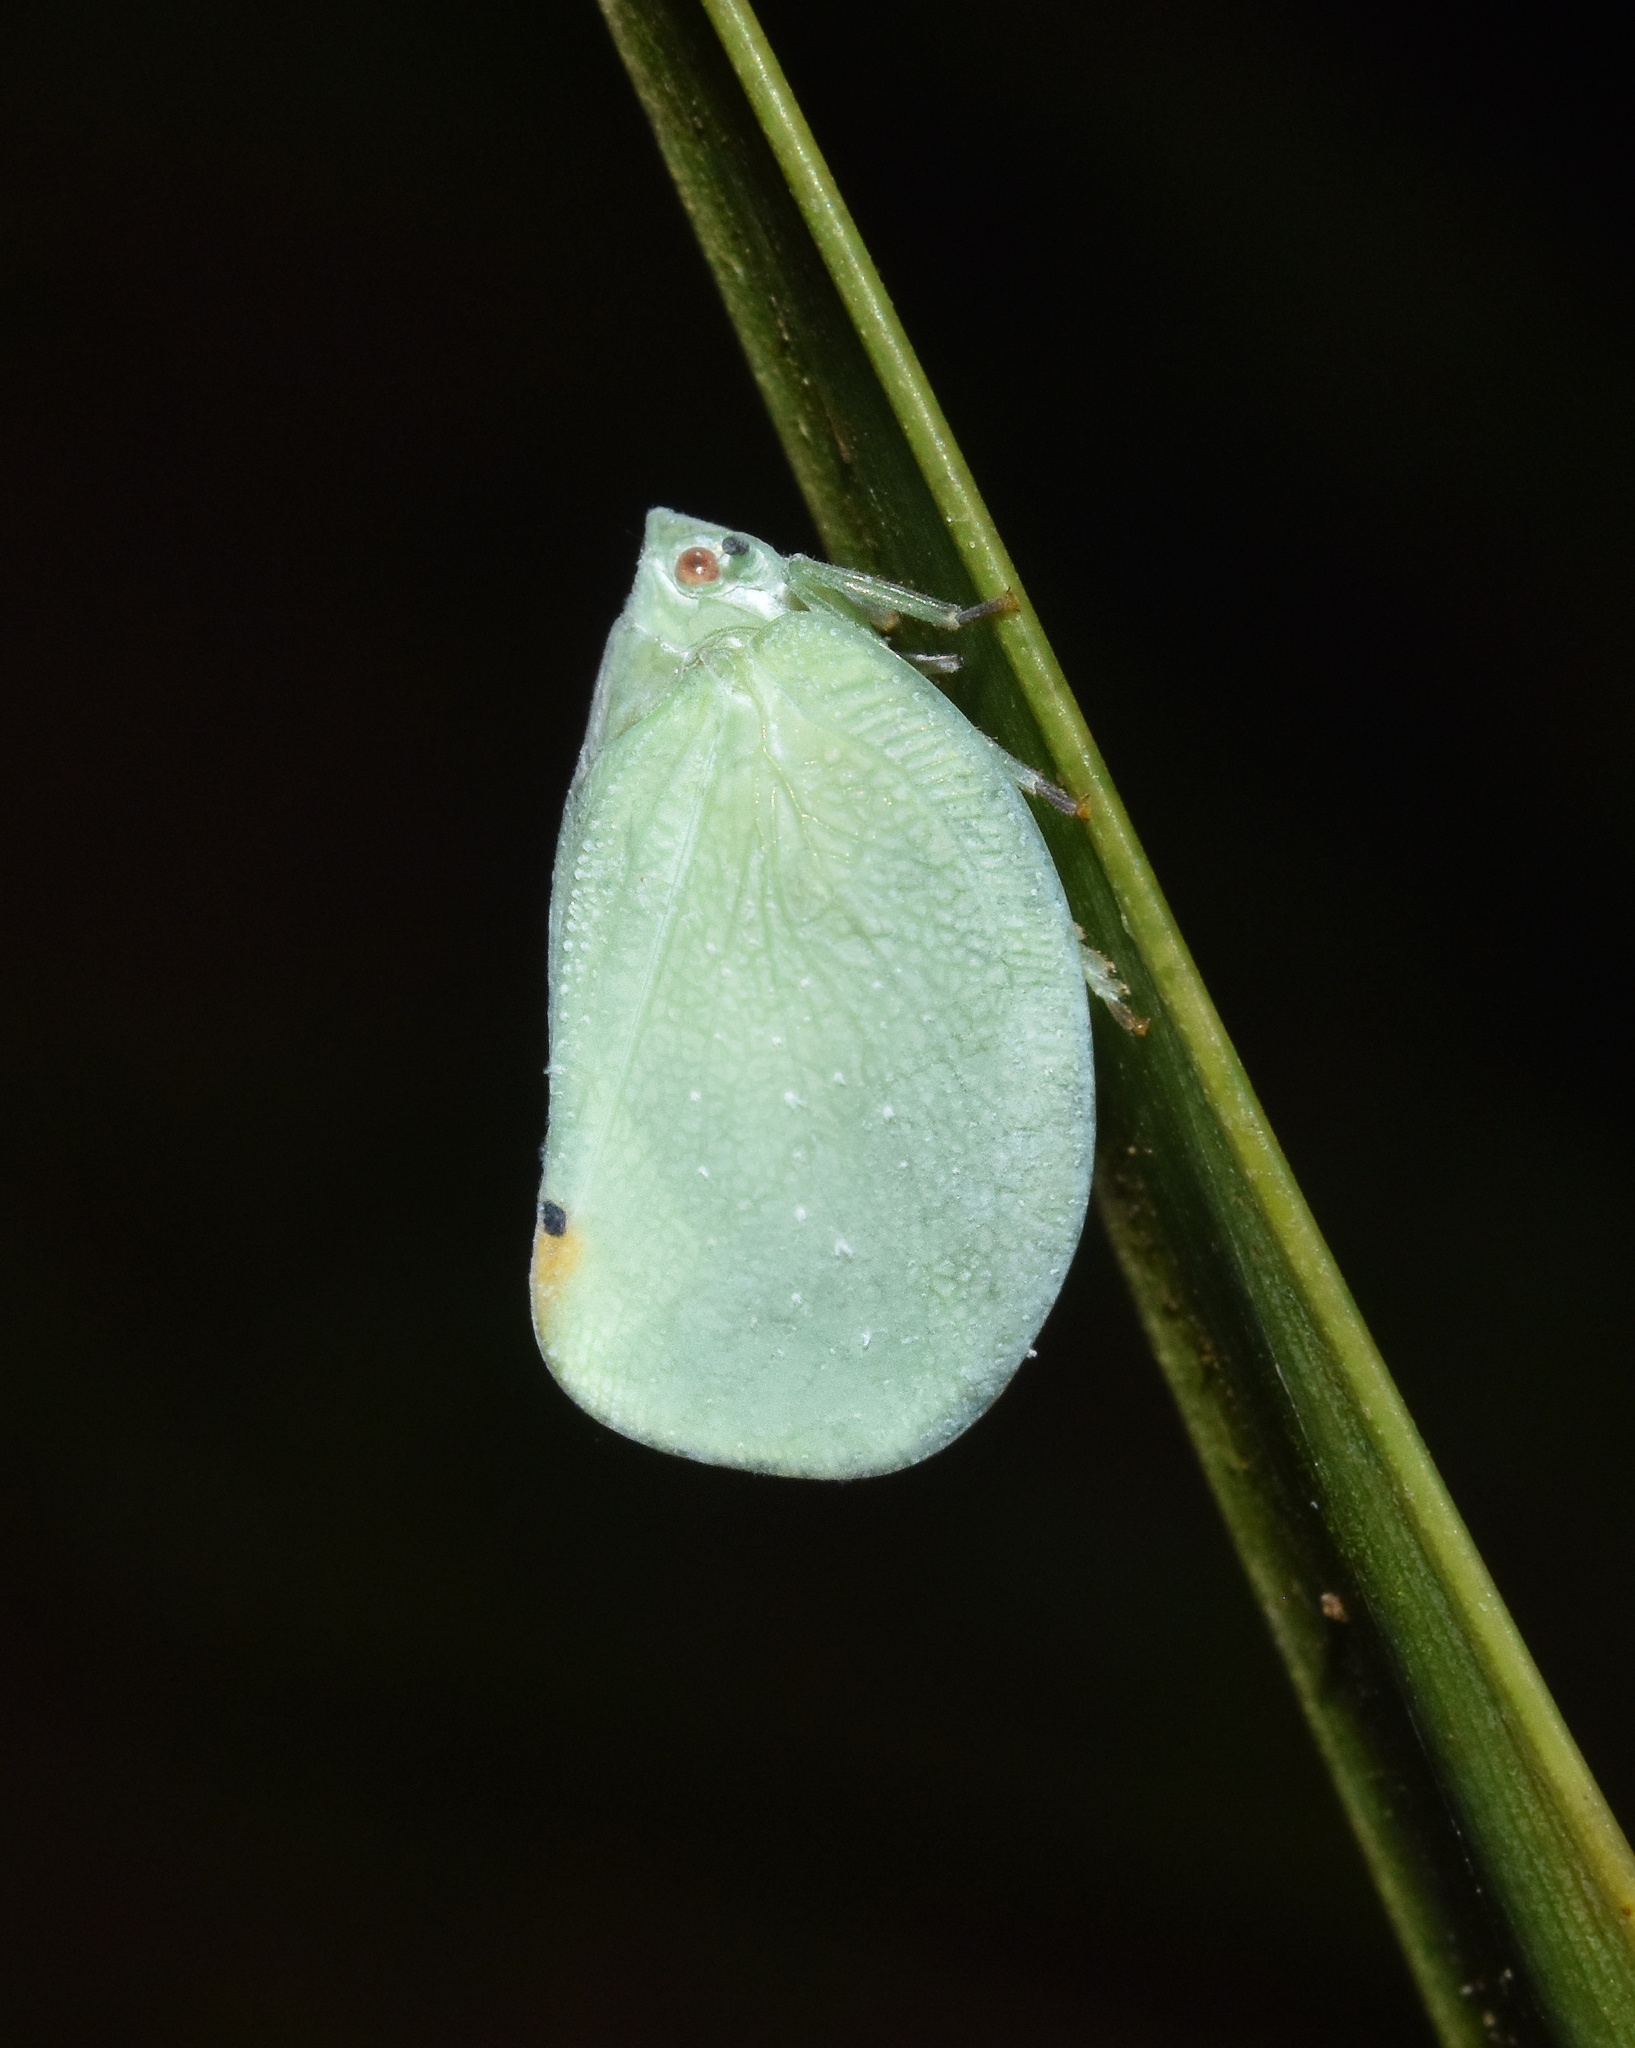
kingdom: Animalia
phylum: Arthropoda
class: Insecta
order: Hemiptera
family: Flatidae
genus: Dalapax
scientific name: Dalapax postica
